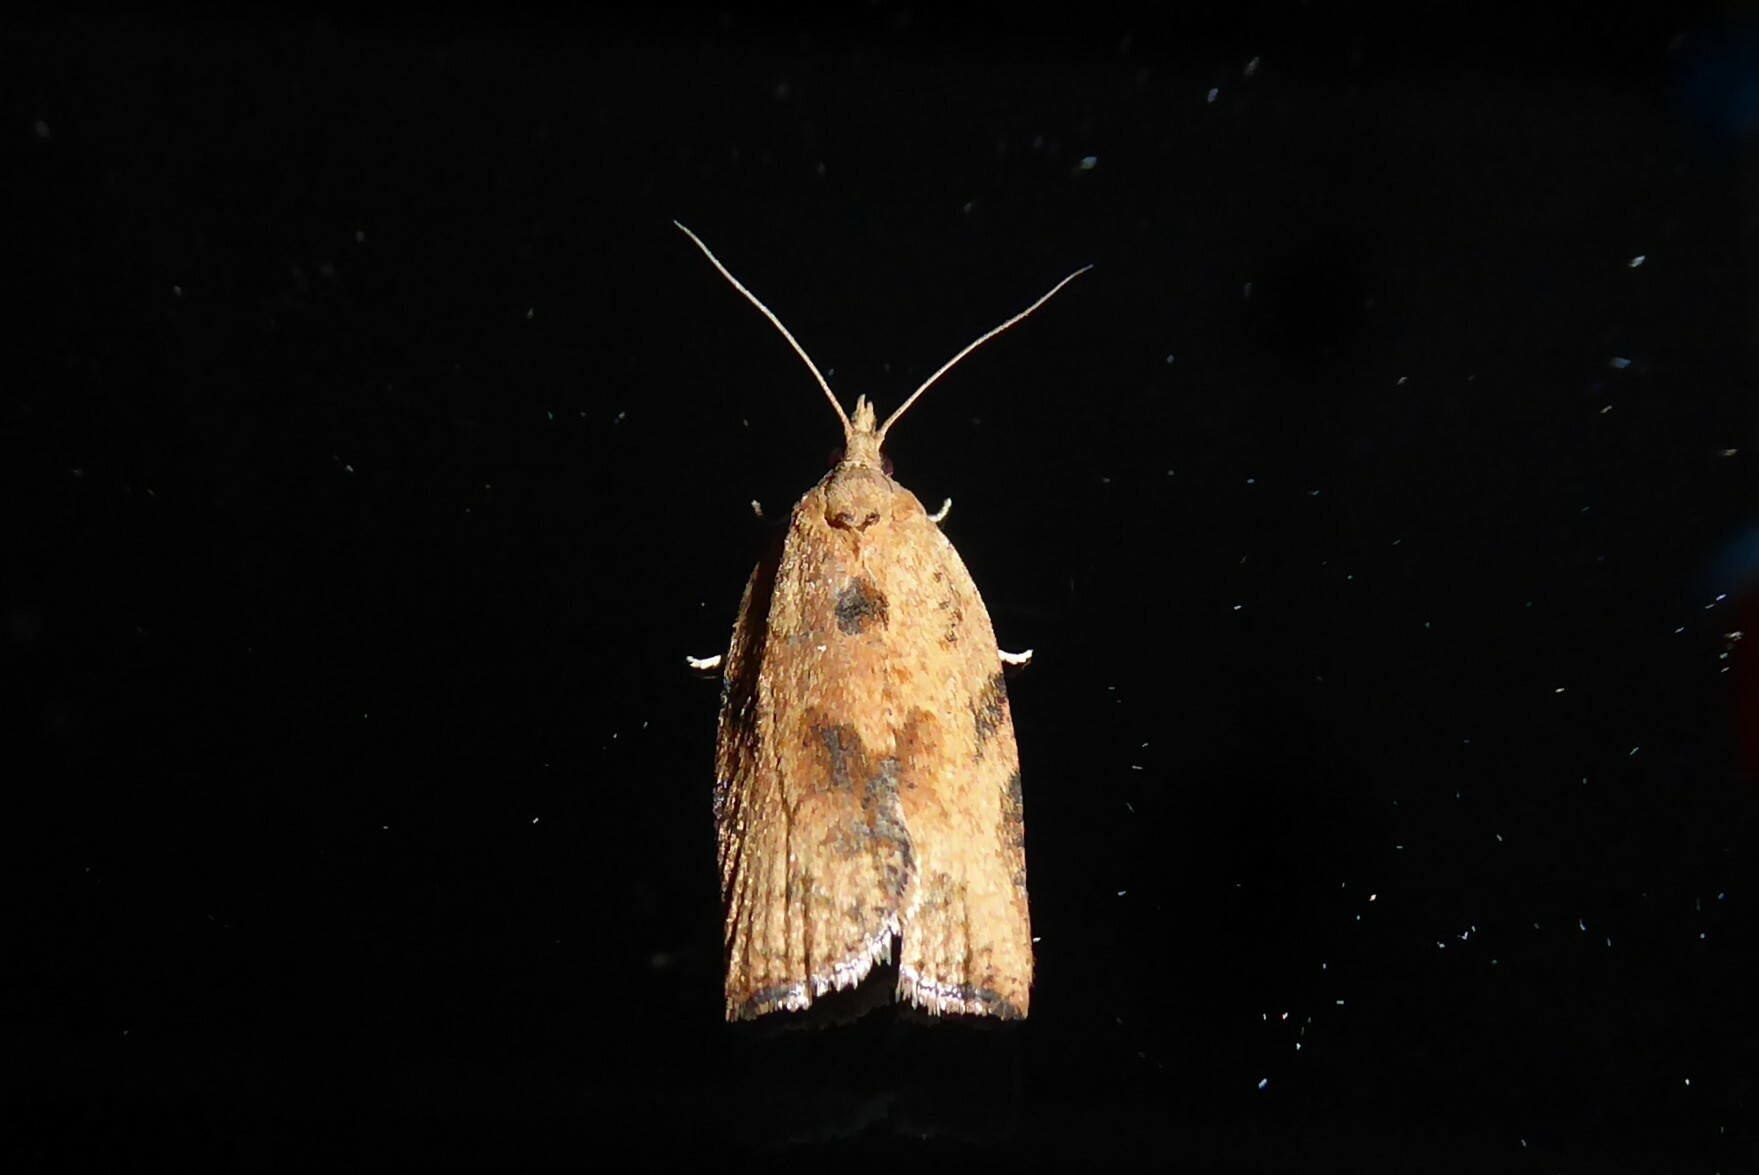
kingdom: Animalia
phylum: Arthropoda
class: Insecta
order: Lepidoptera
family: Tortricidae
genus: Epiphyas
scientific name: Epiphyas postvittana
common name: Light brown apple moth
